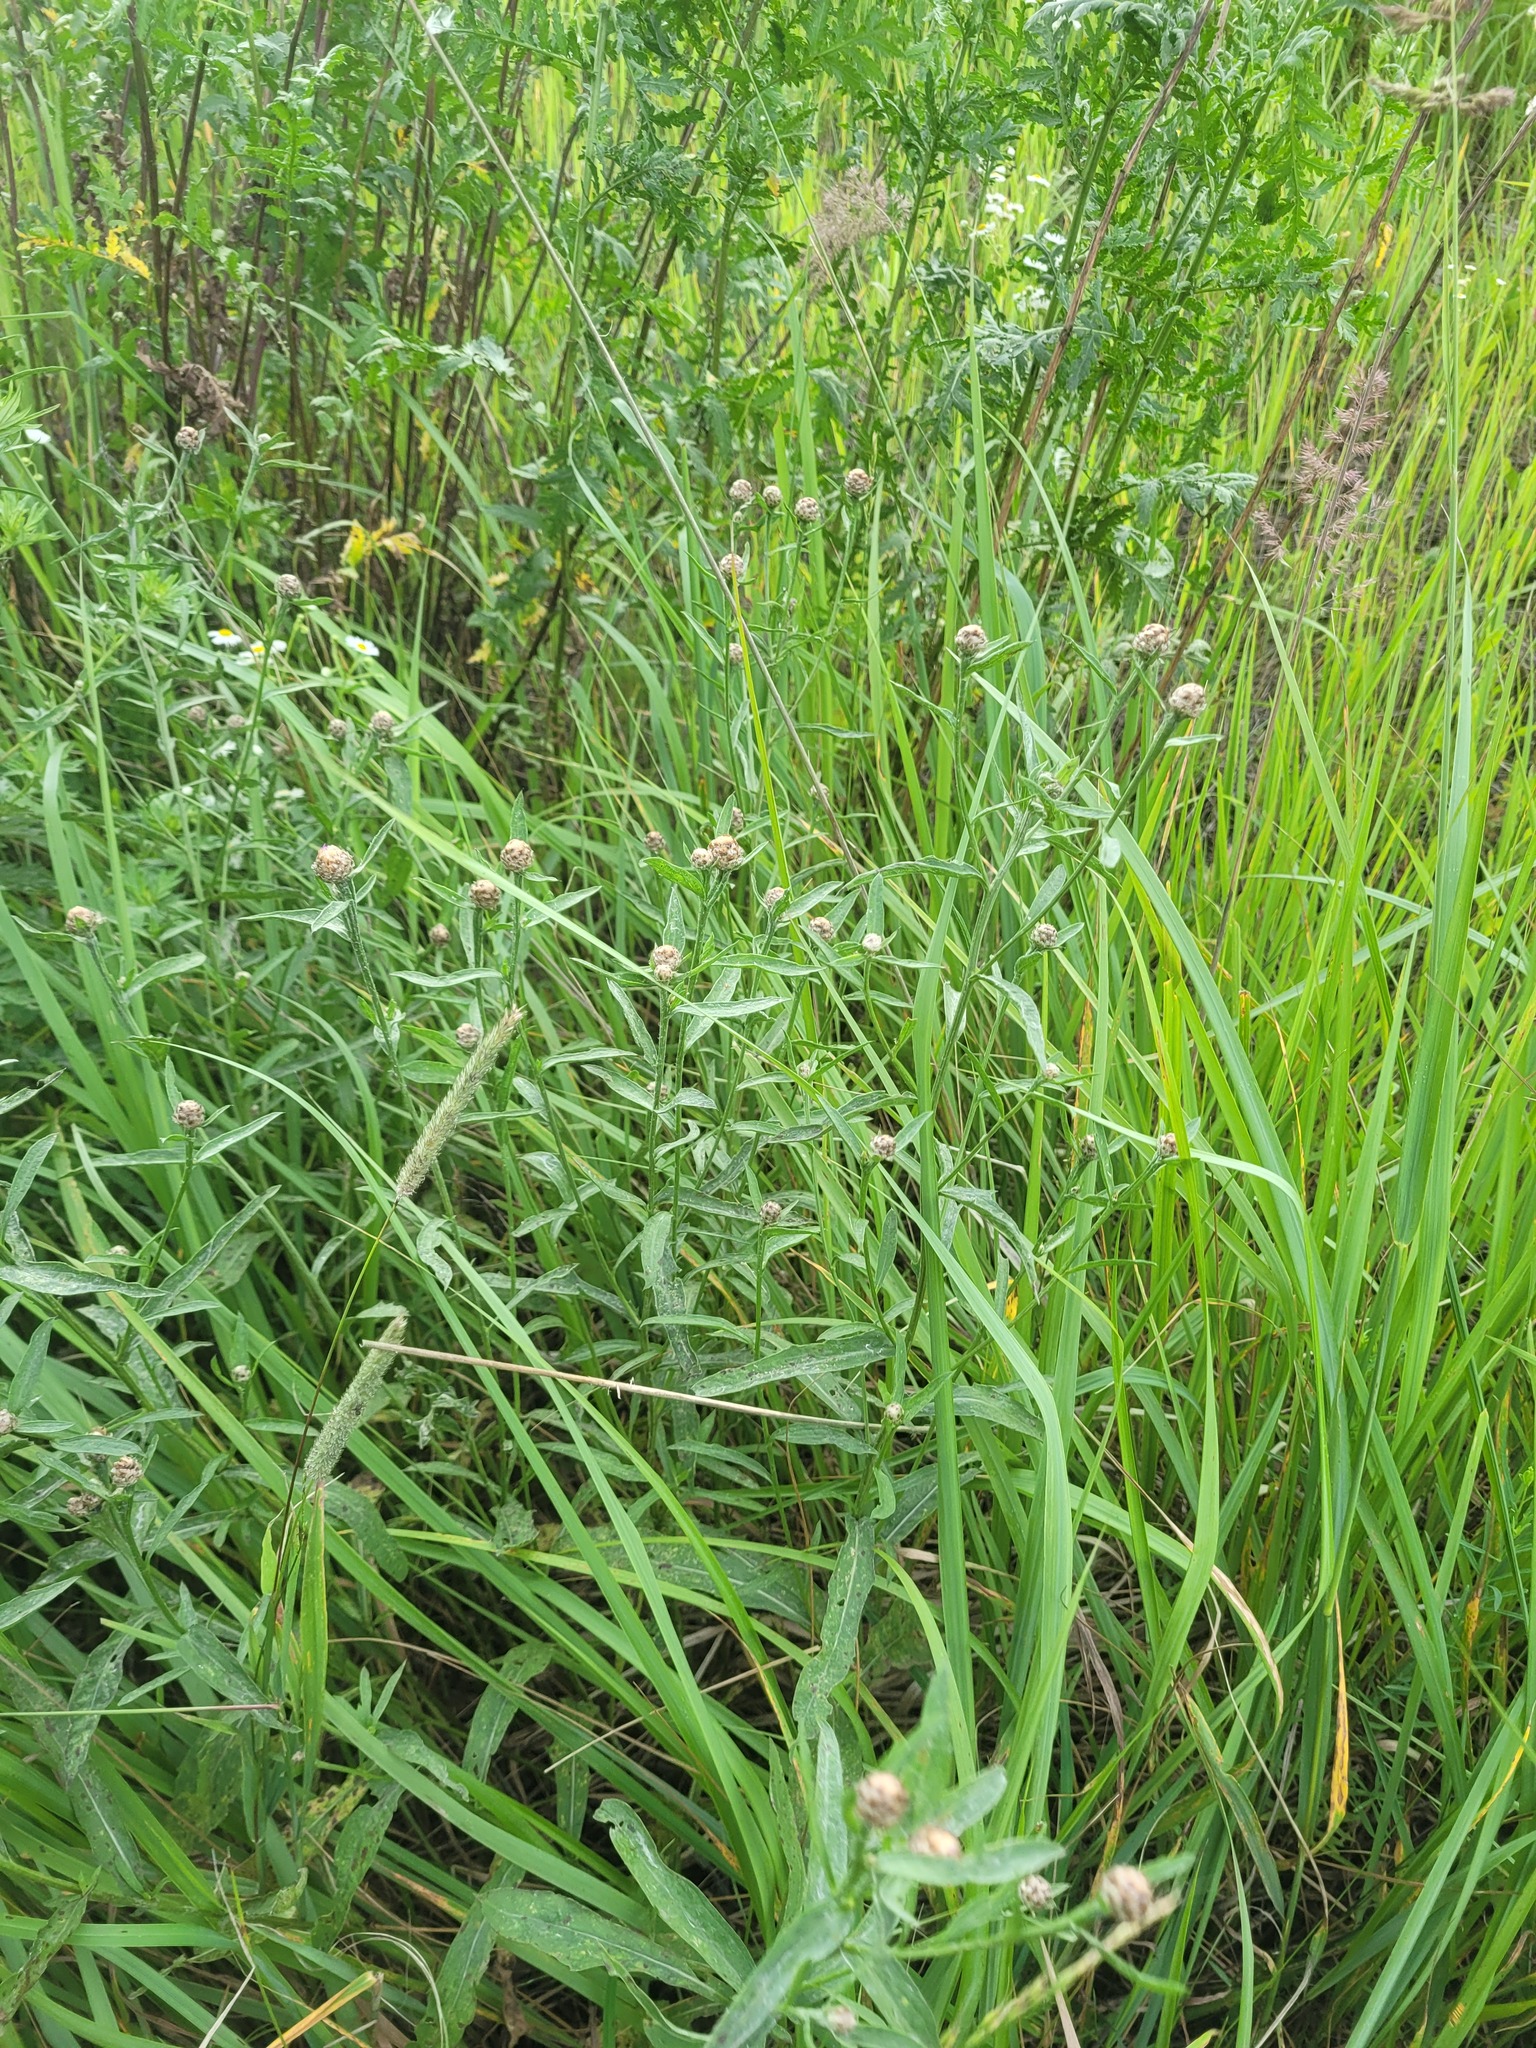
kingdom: Plantae
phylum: Tracheophyta
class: Magnoliopsida
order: Asterales
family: Asteraceae
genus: Centaurea
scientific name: Centaurea jacea
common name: Brown knapweed
